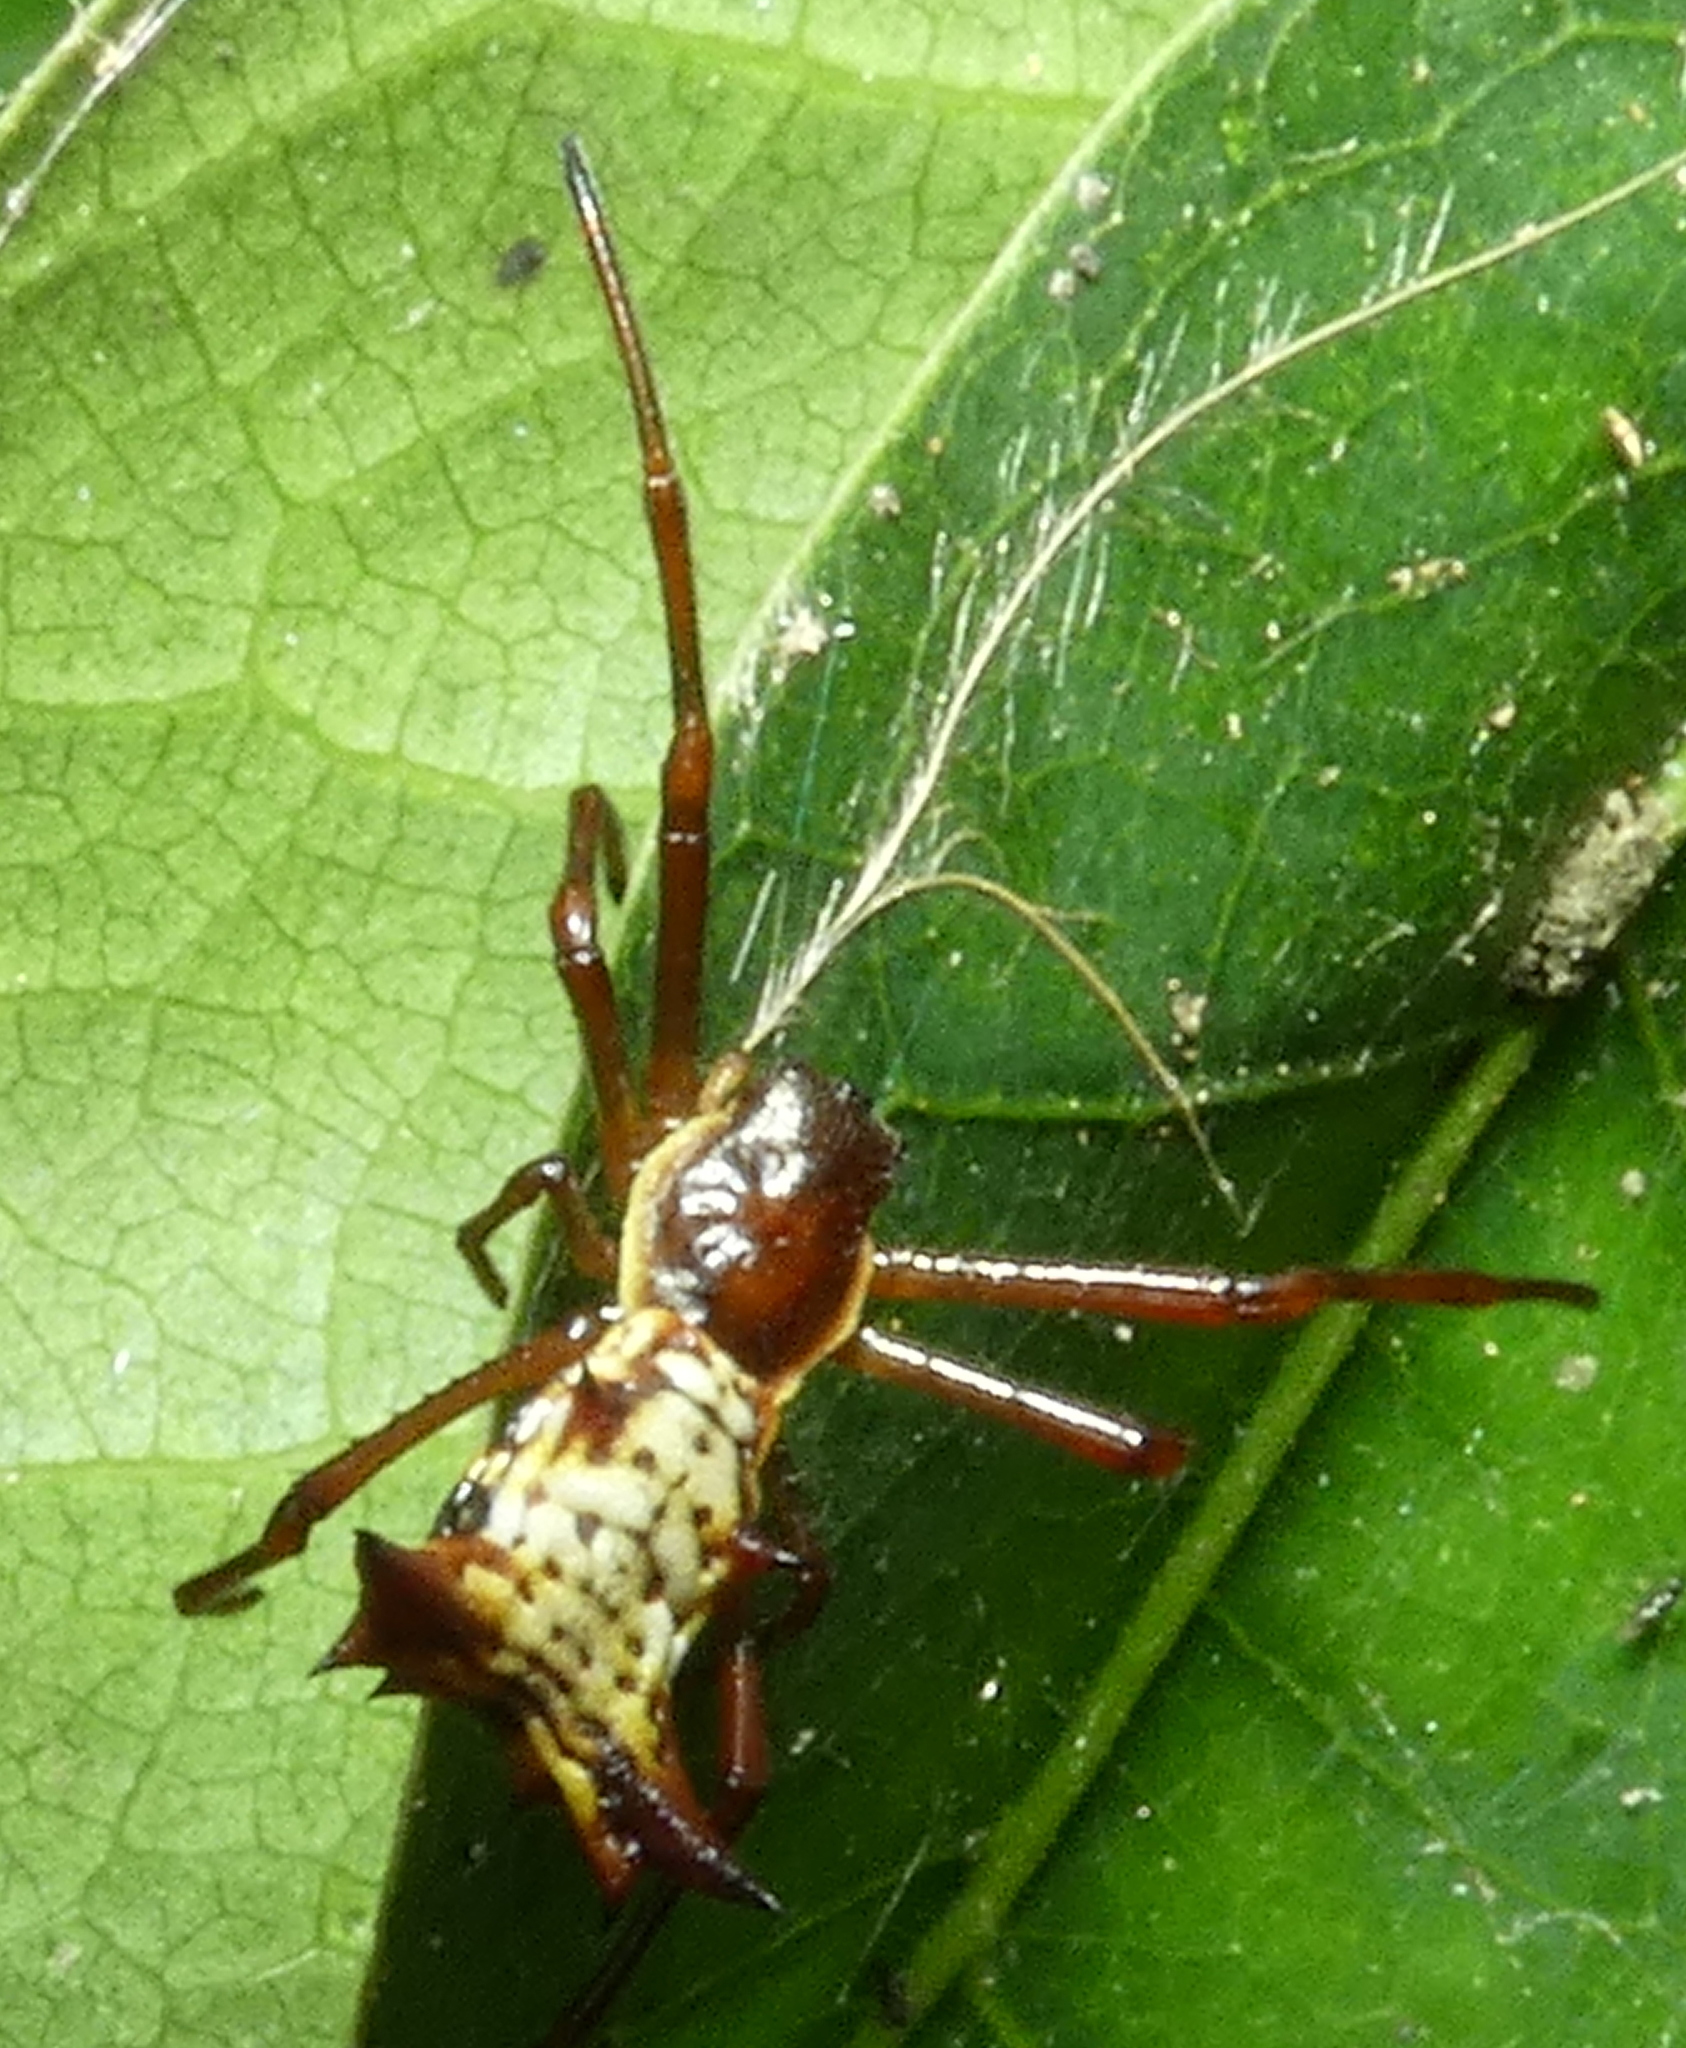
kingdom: Animalia
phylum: Arthropoda
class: Arachnida
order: Araneae
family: Araneidae
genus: Micrathena
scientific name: Micrathena fissispina
